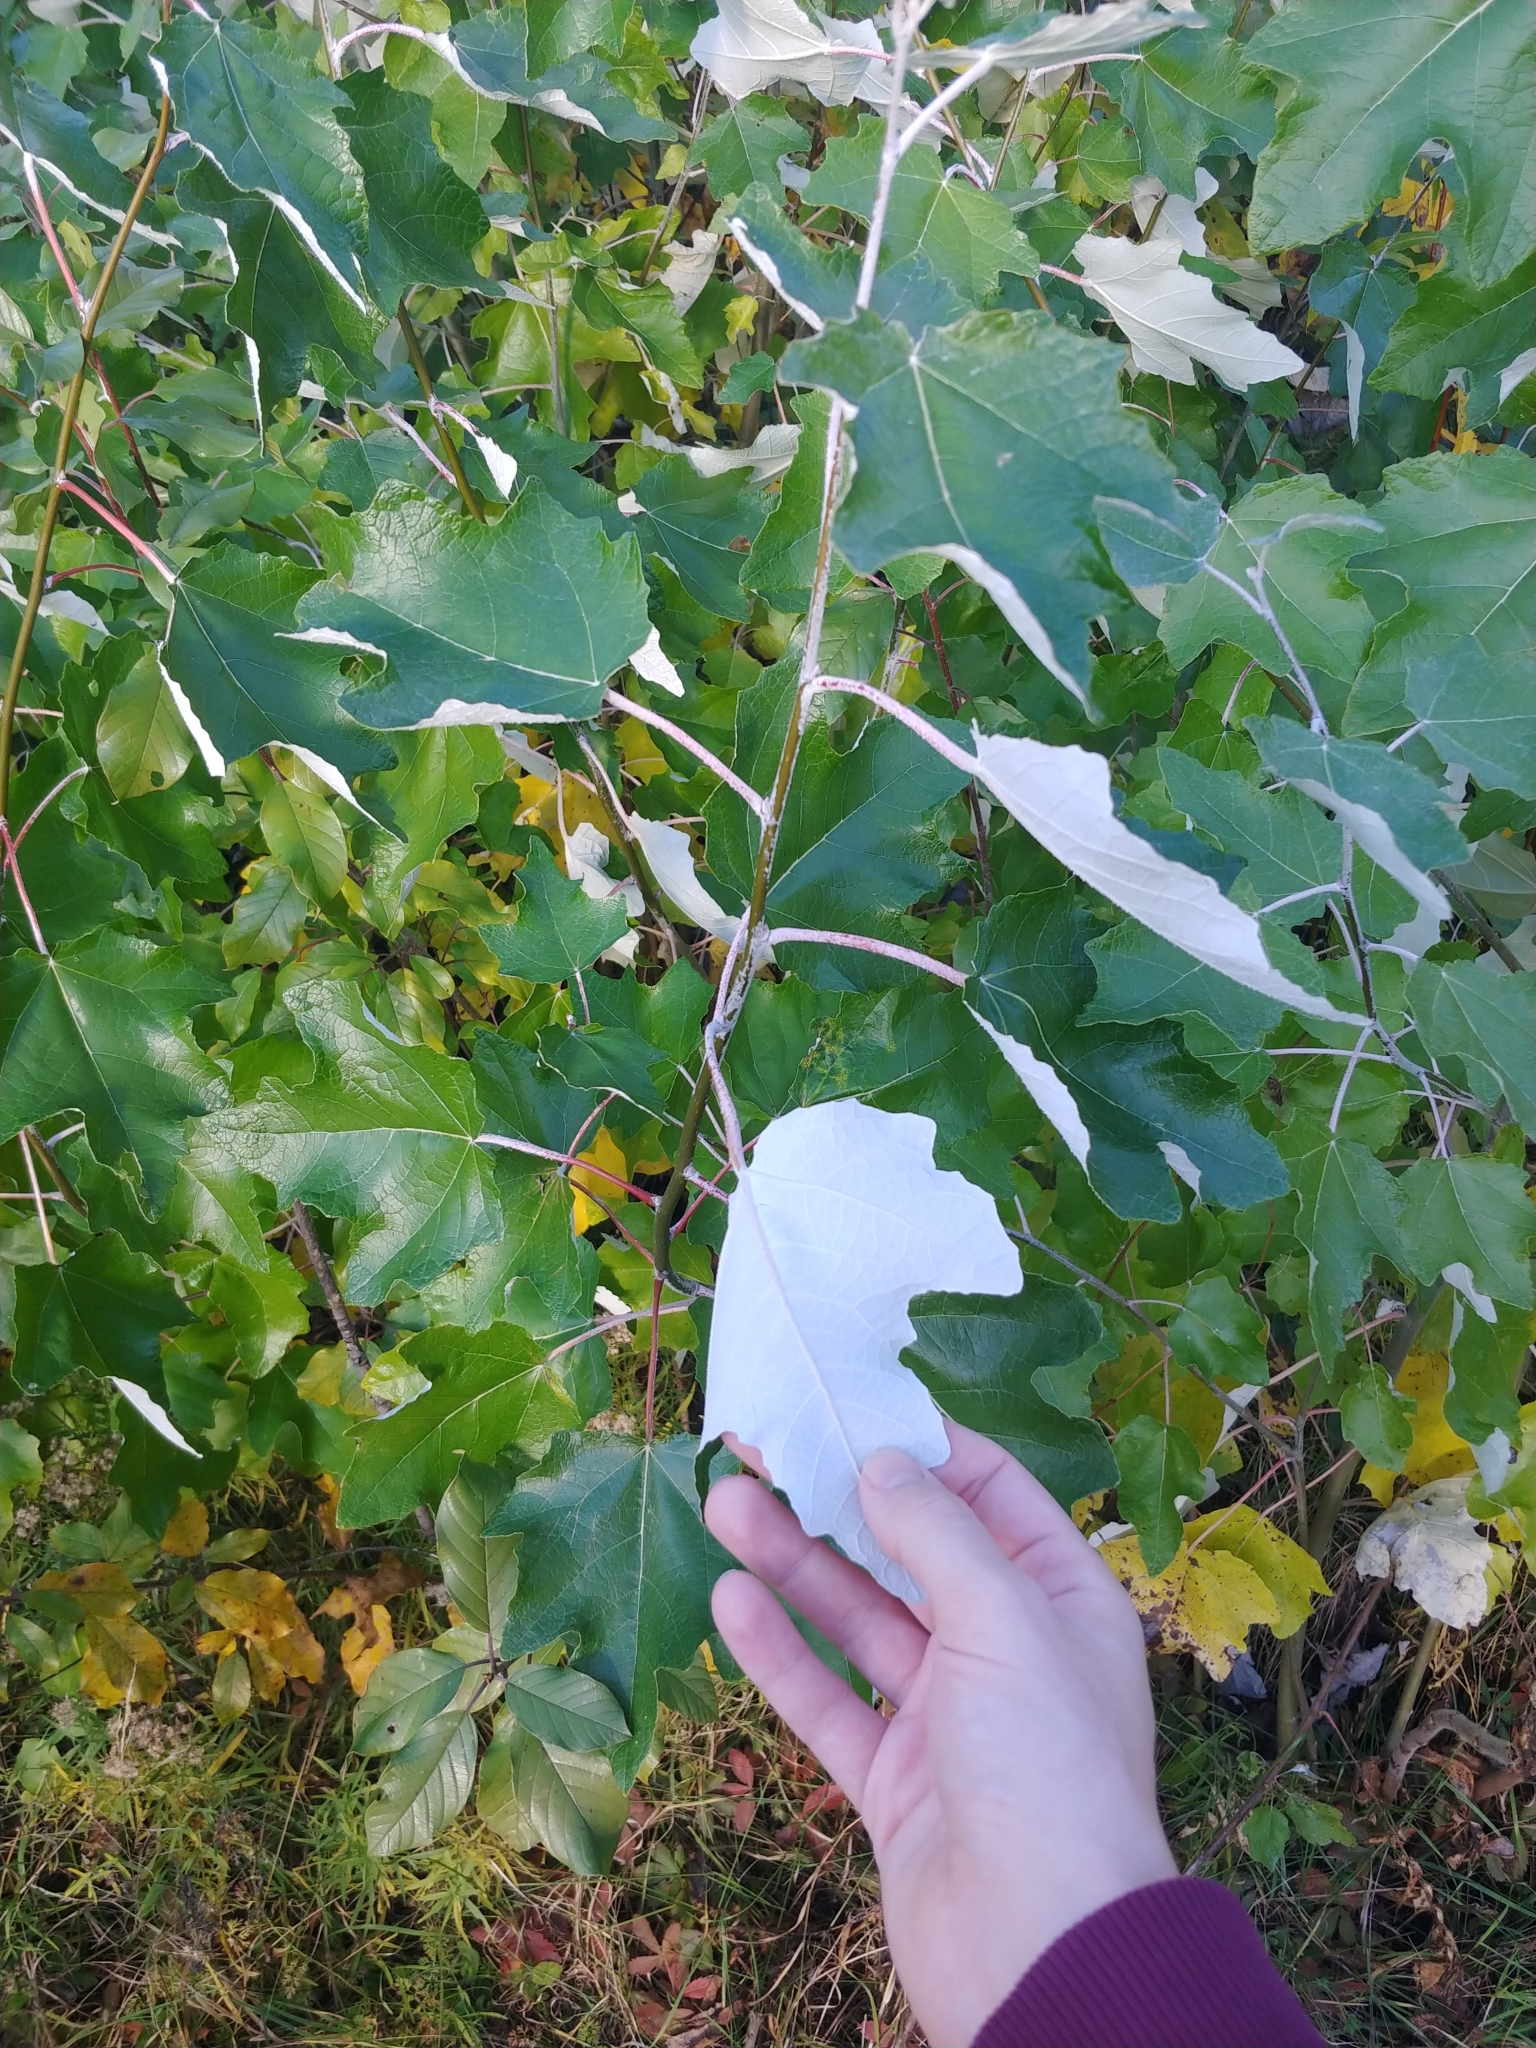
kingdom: Plantae
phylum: Tracheophyta
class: Magnoliopsida
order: Malpighiales
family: Salicaceae
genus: Populus
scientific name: Populus alba
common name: White poplar
